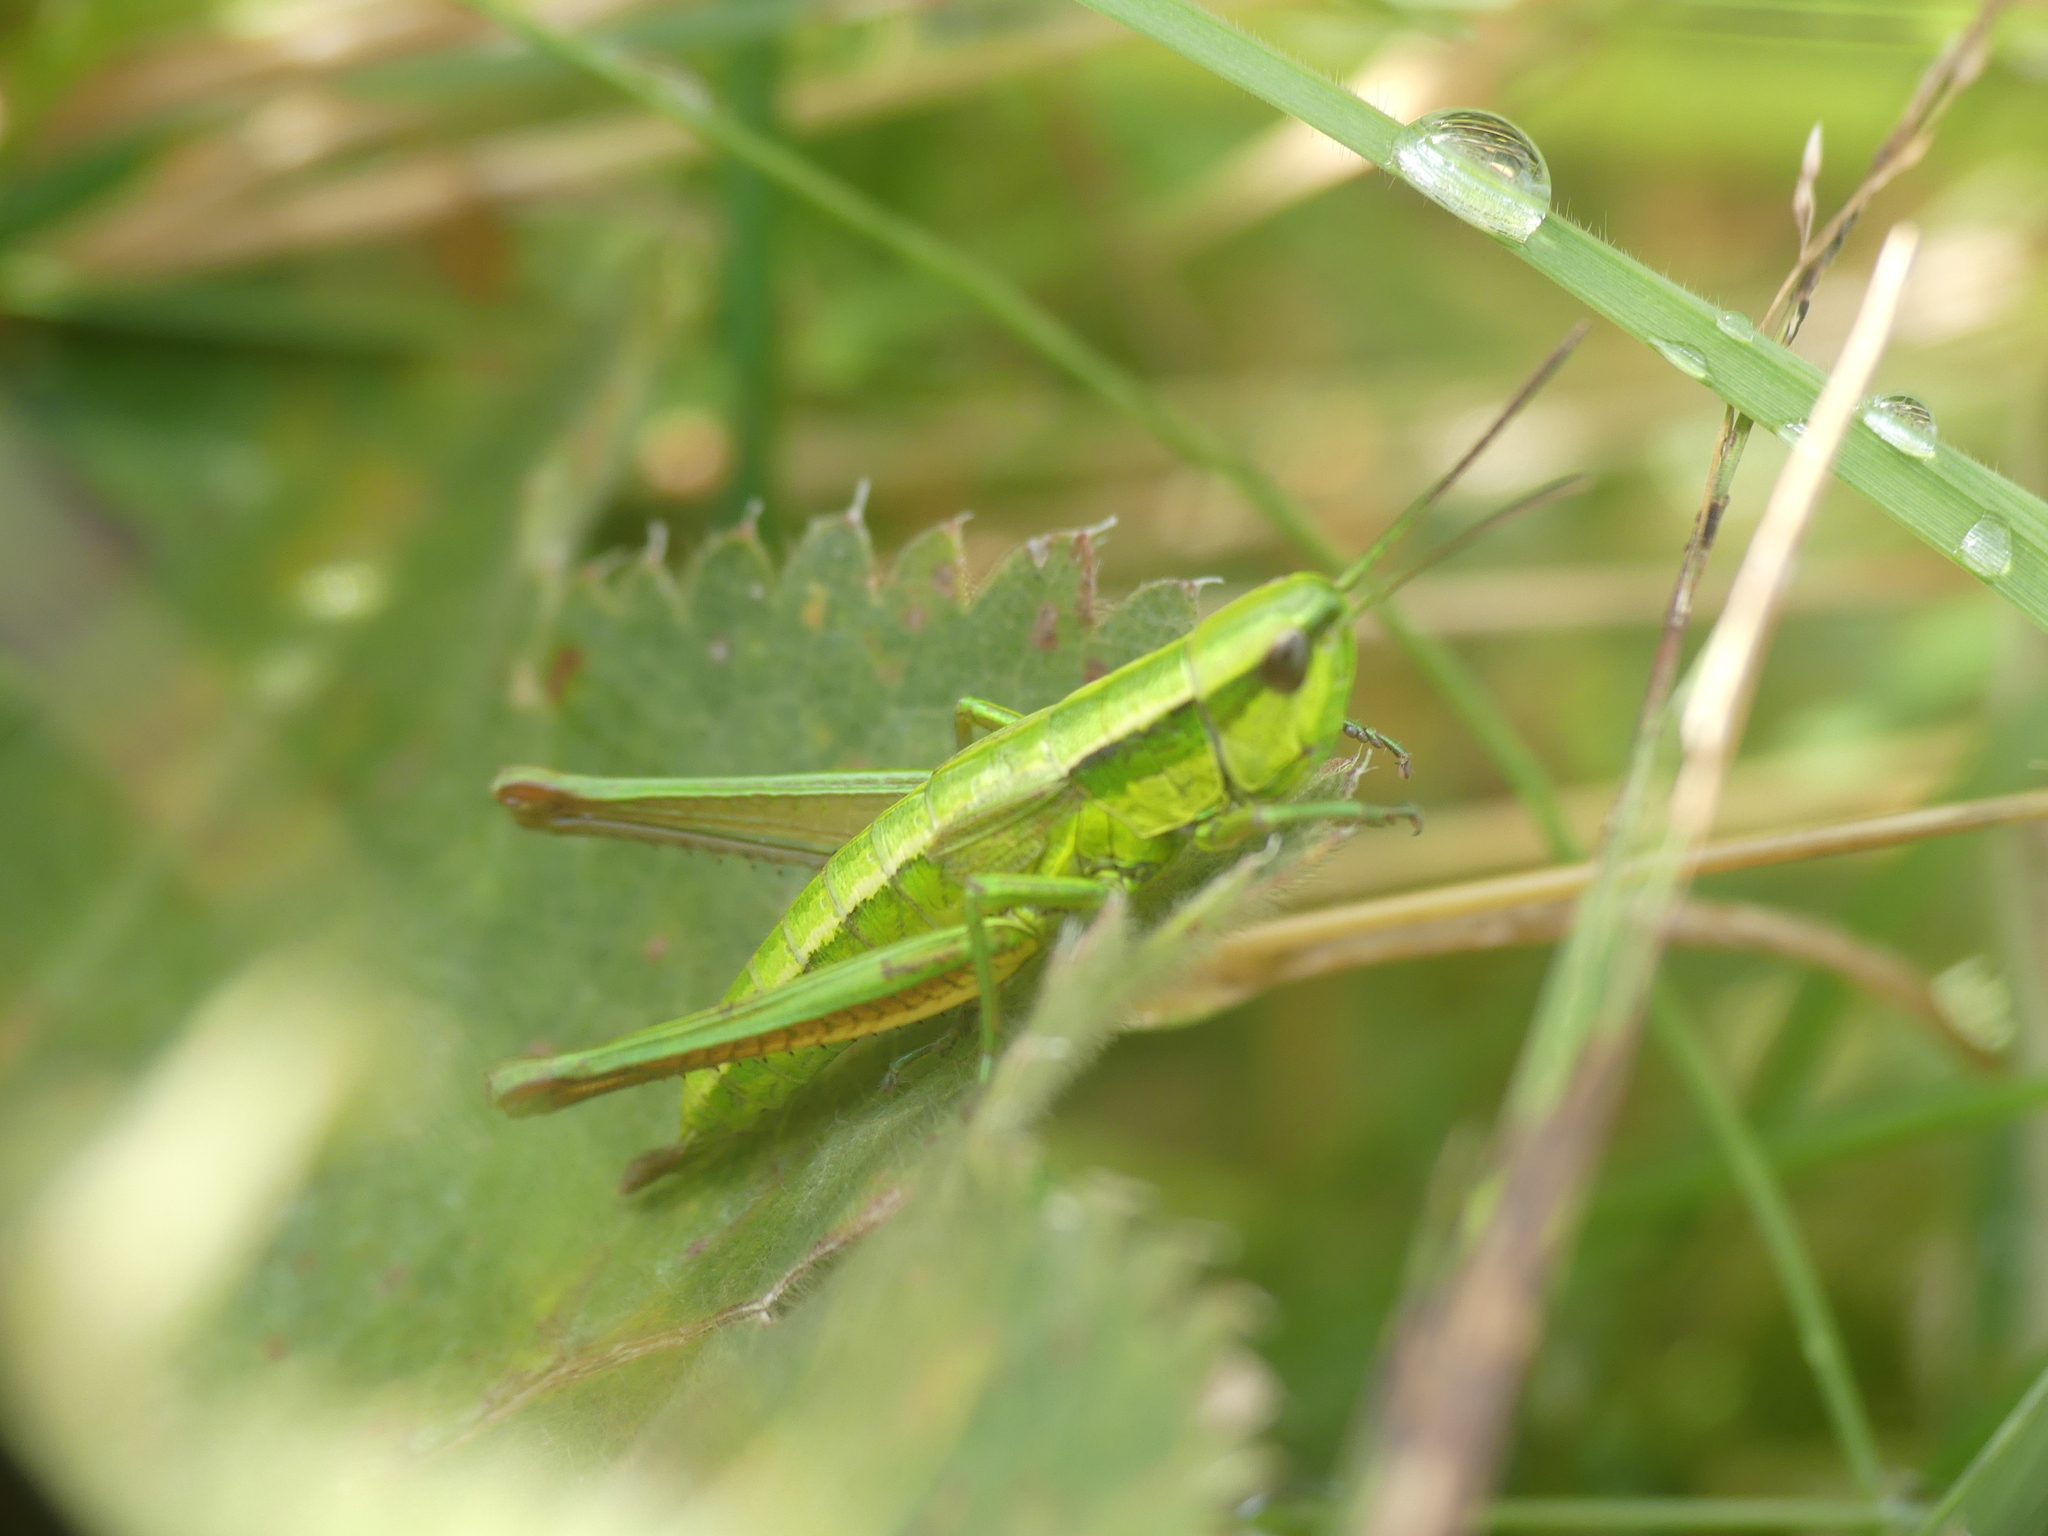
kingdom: Animalia
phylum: Arthropoda
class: Insecta
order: Orthoptera
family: Acrididae
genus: Euthystira
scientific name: Euthystira brachyptera
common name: Small gold grasshopper
